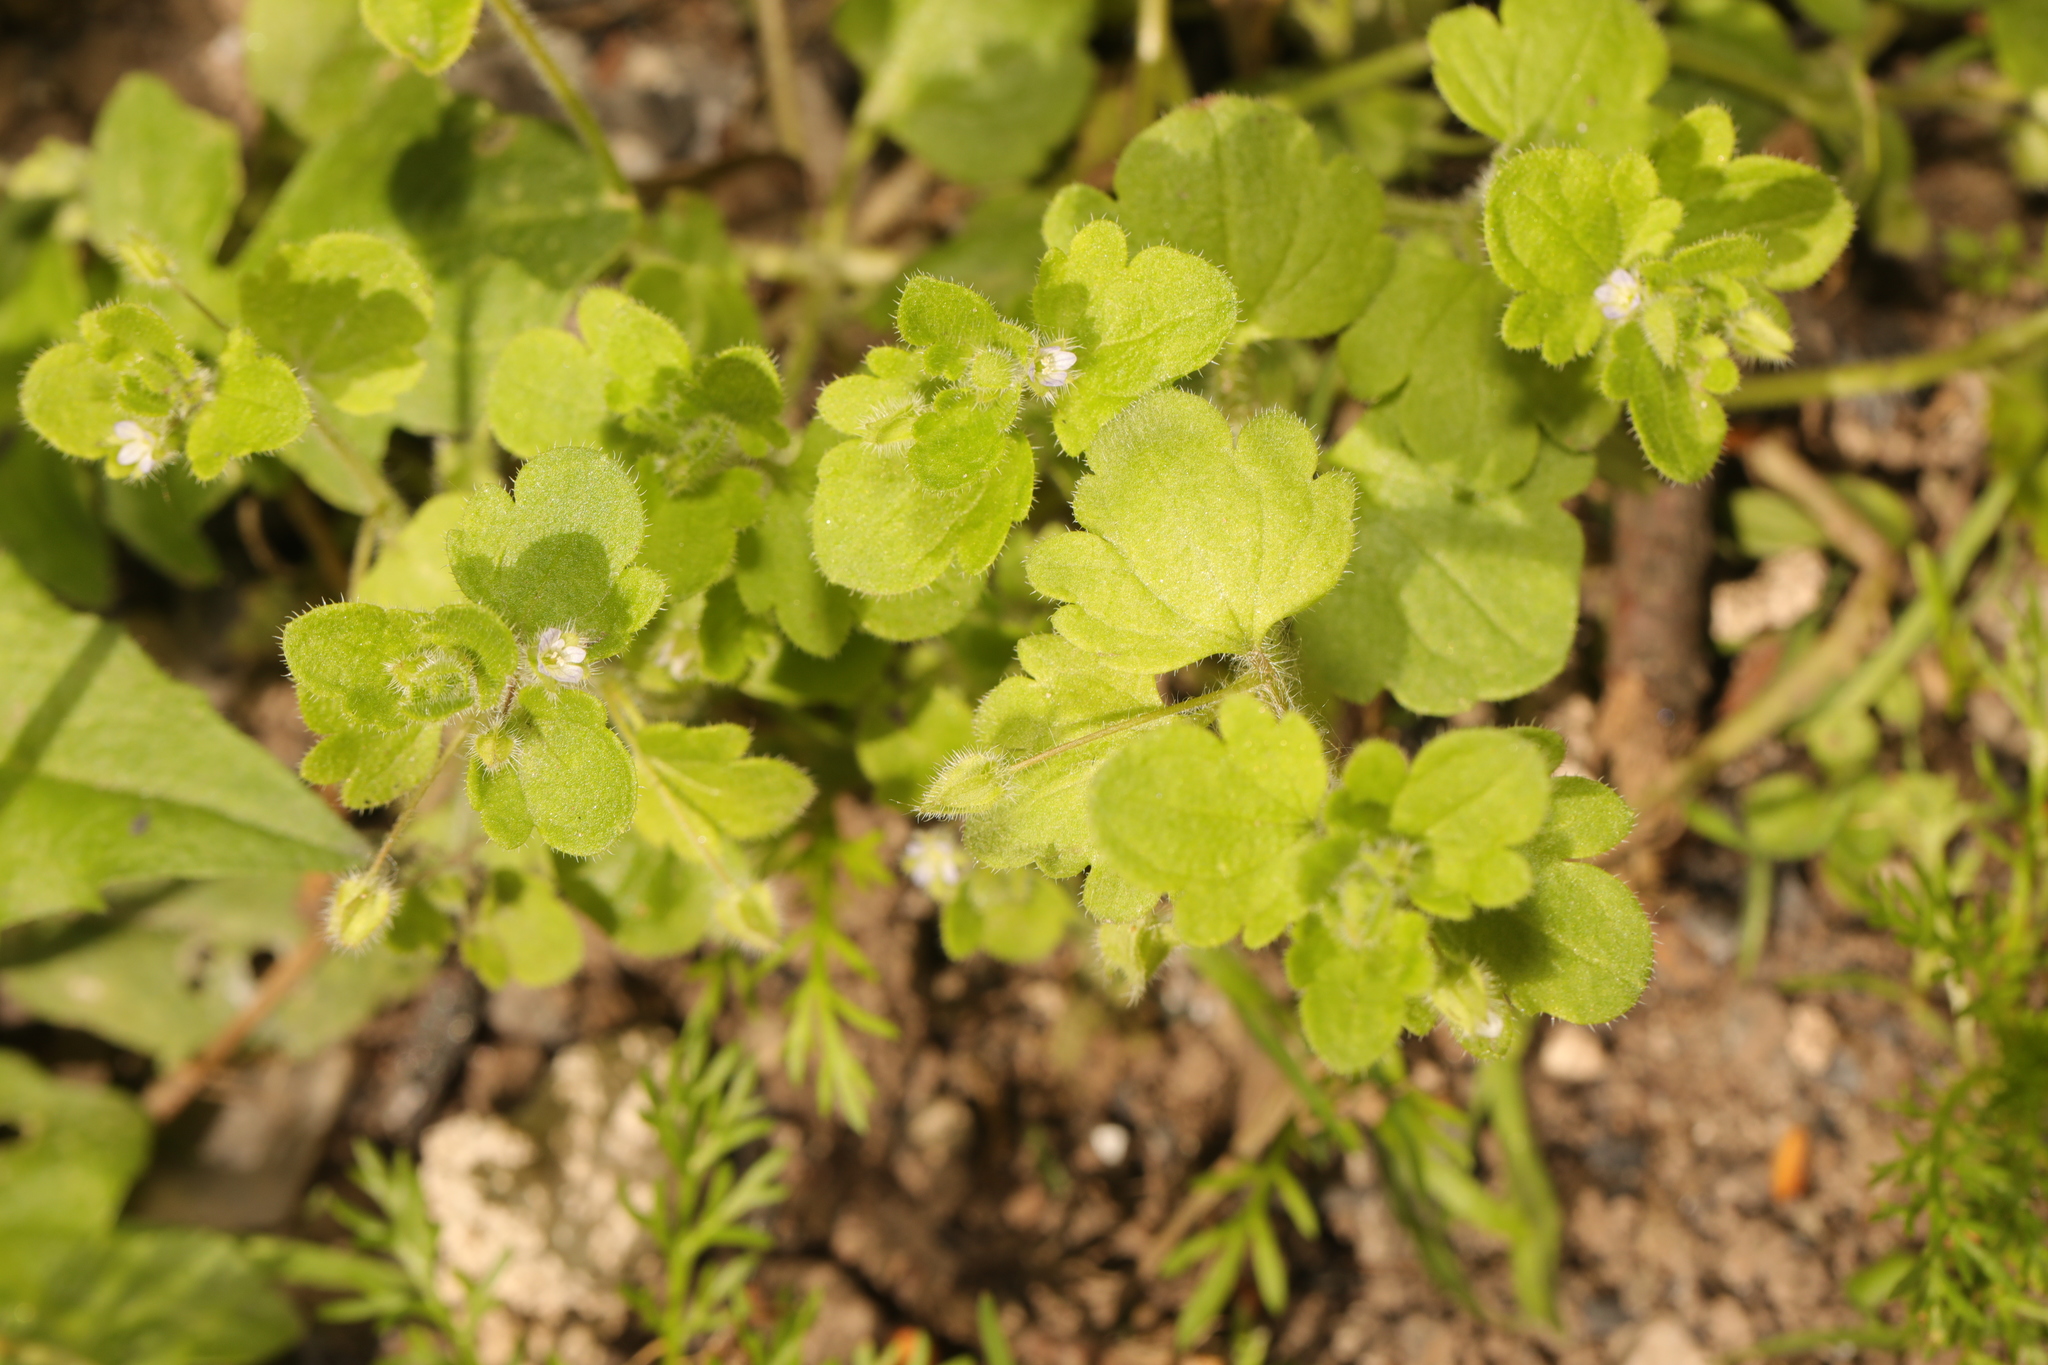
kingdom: Plantae
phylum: Tracheophyta
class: Magnoliopsida
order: Lamiales
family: Plantaginaceae
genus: Veronica
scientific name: Veronica sublobata
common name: False ivy-leaved speedwell
